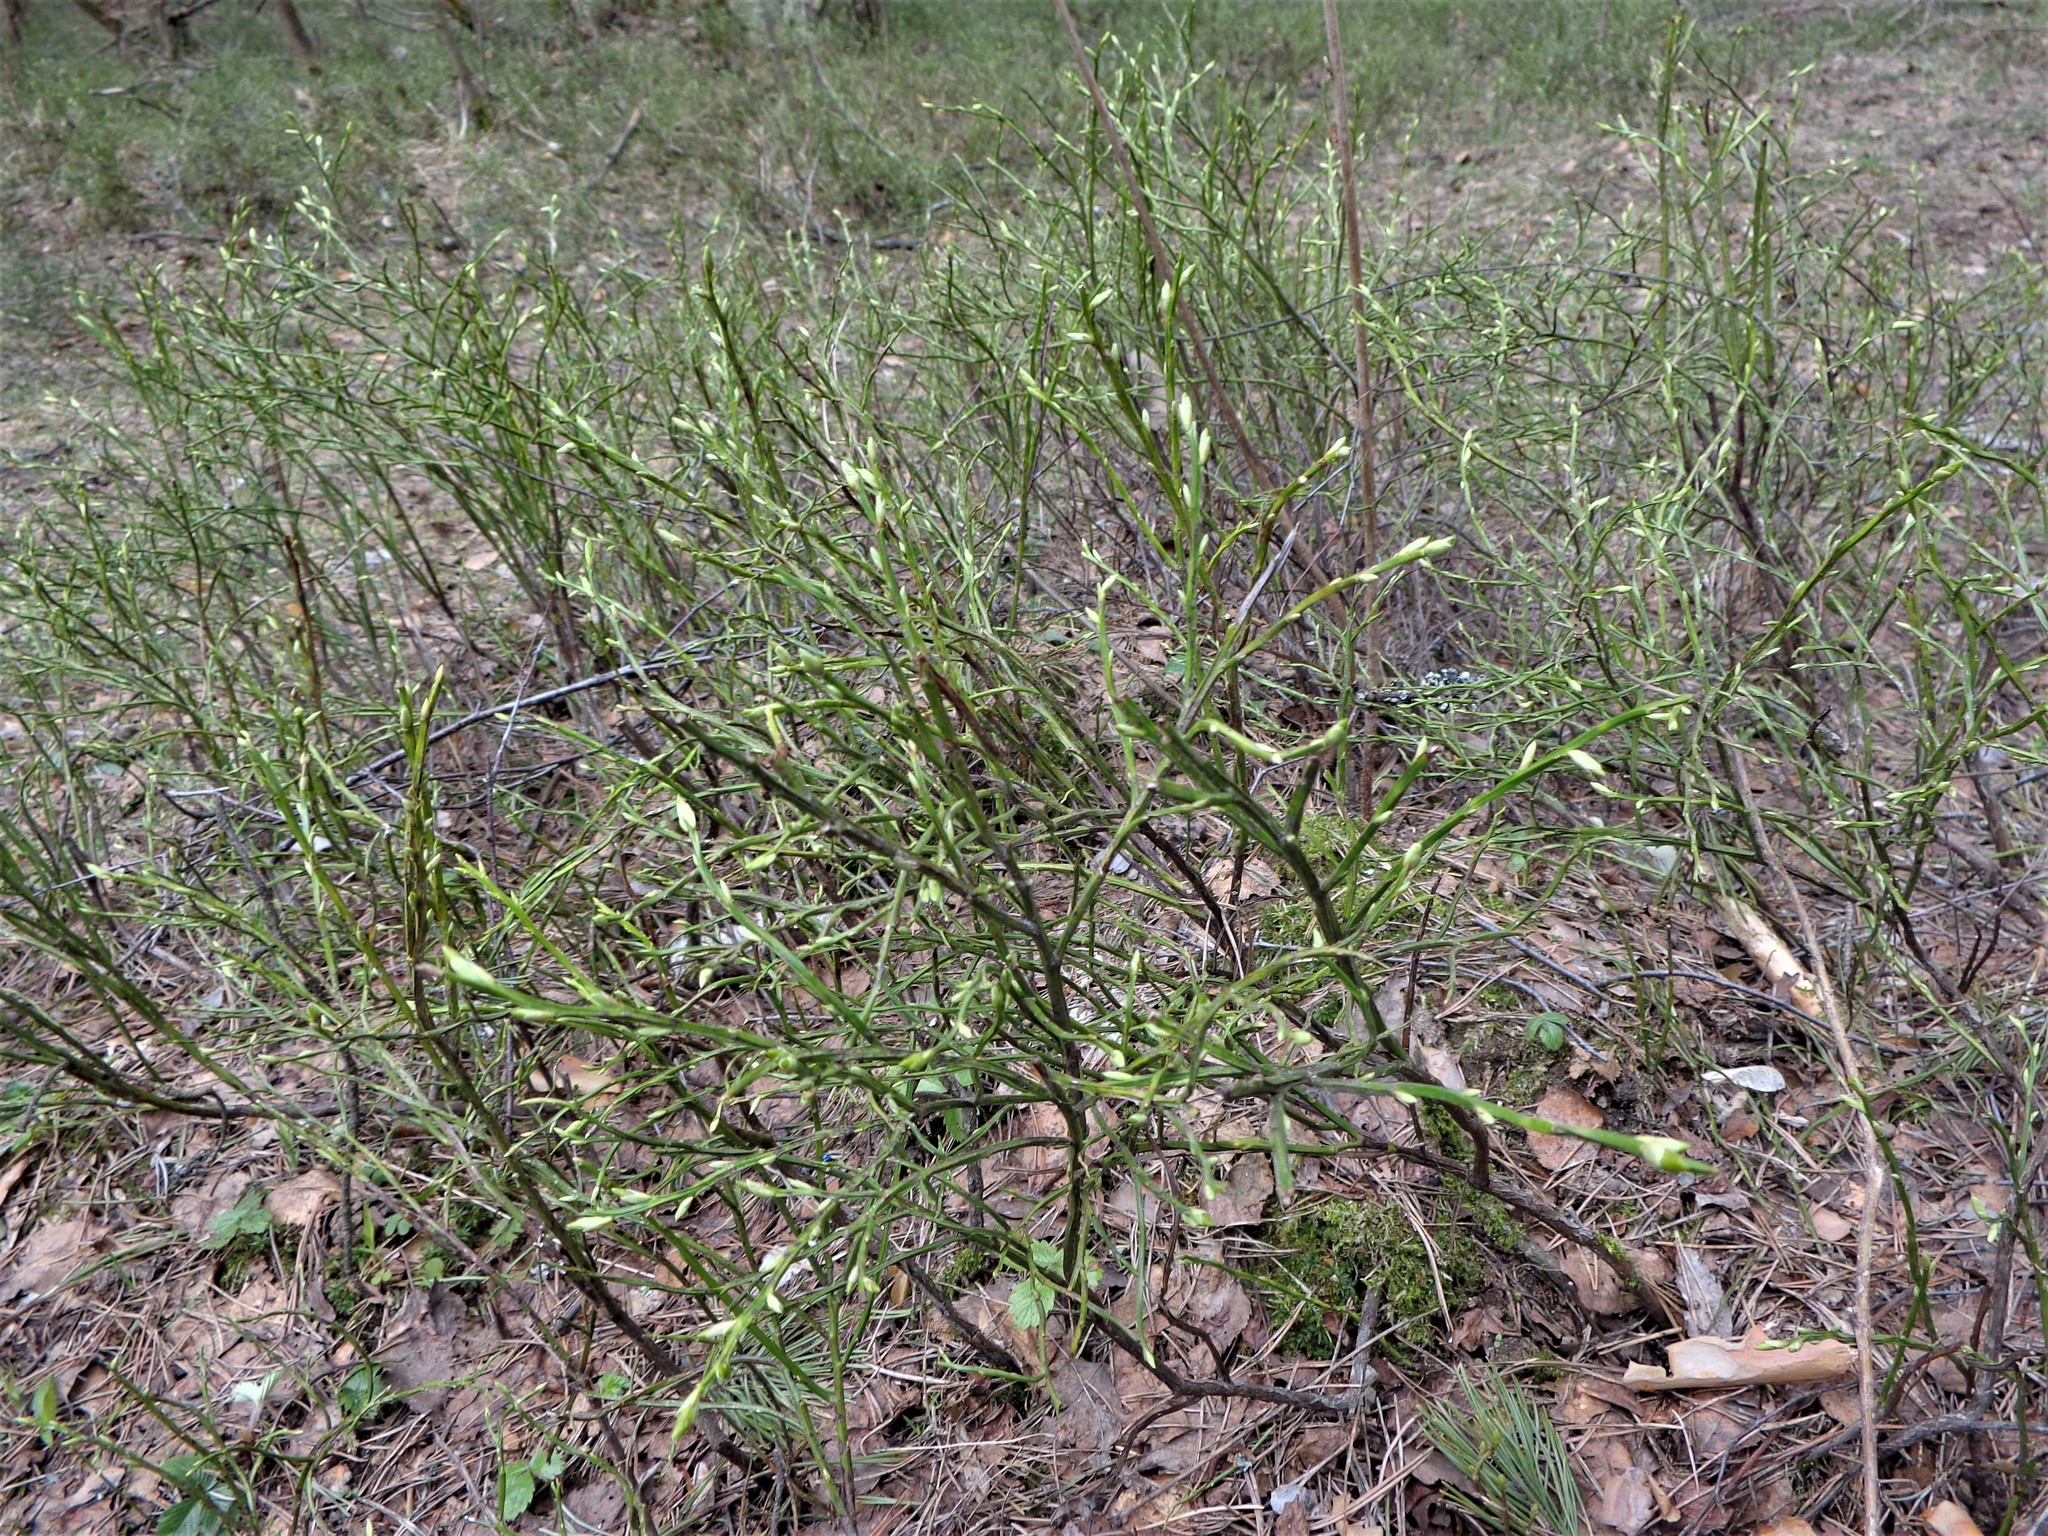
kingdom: Plantae
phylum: Tracheophyta
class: Magnoliopsida
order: Ericales
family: Ericaceae
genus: Vaccinium
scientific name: Vaccinium myrtillus
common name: Bilberry
